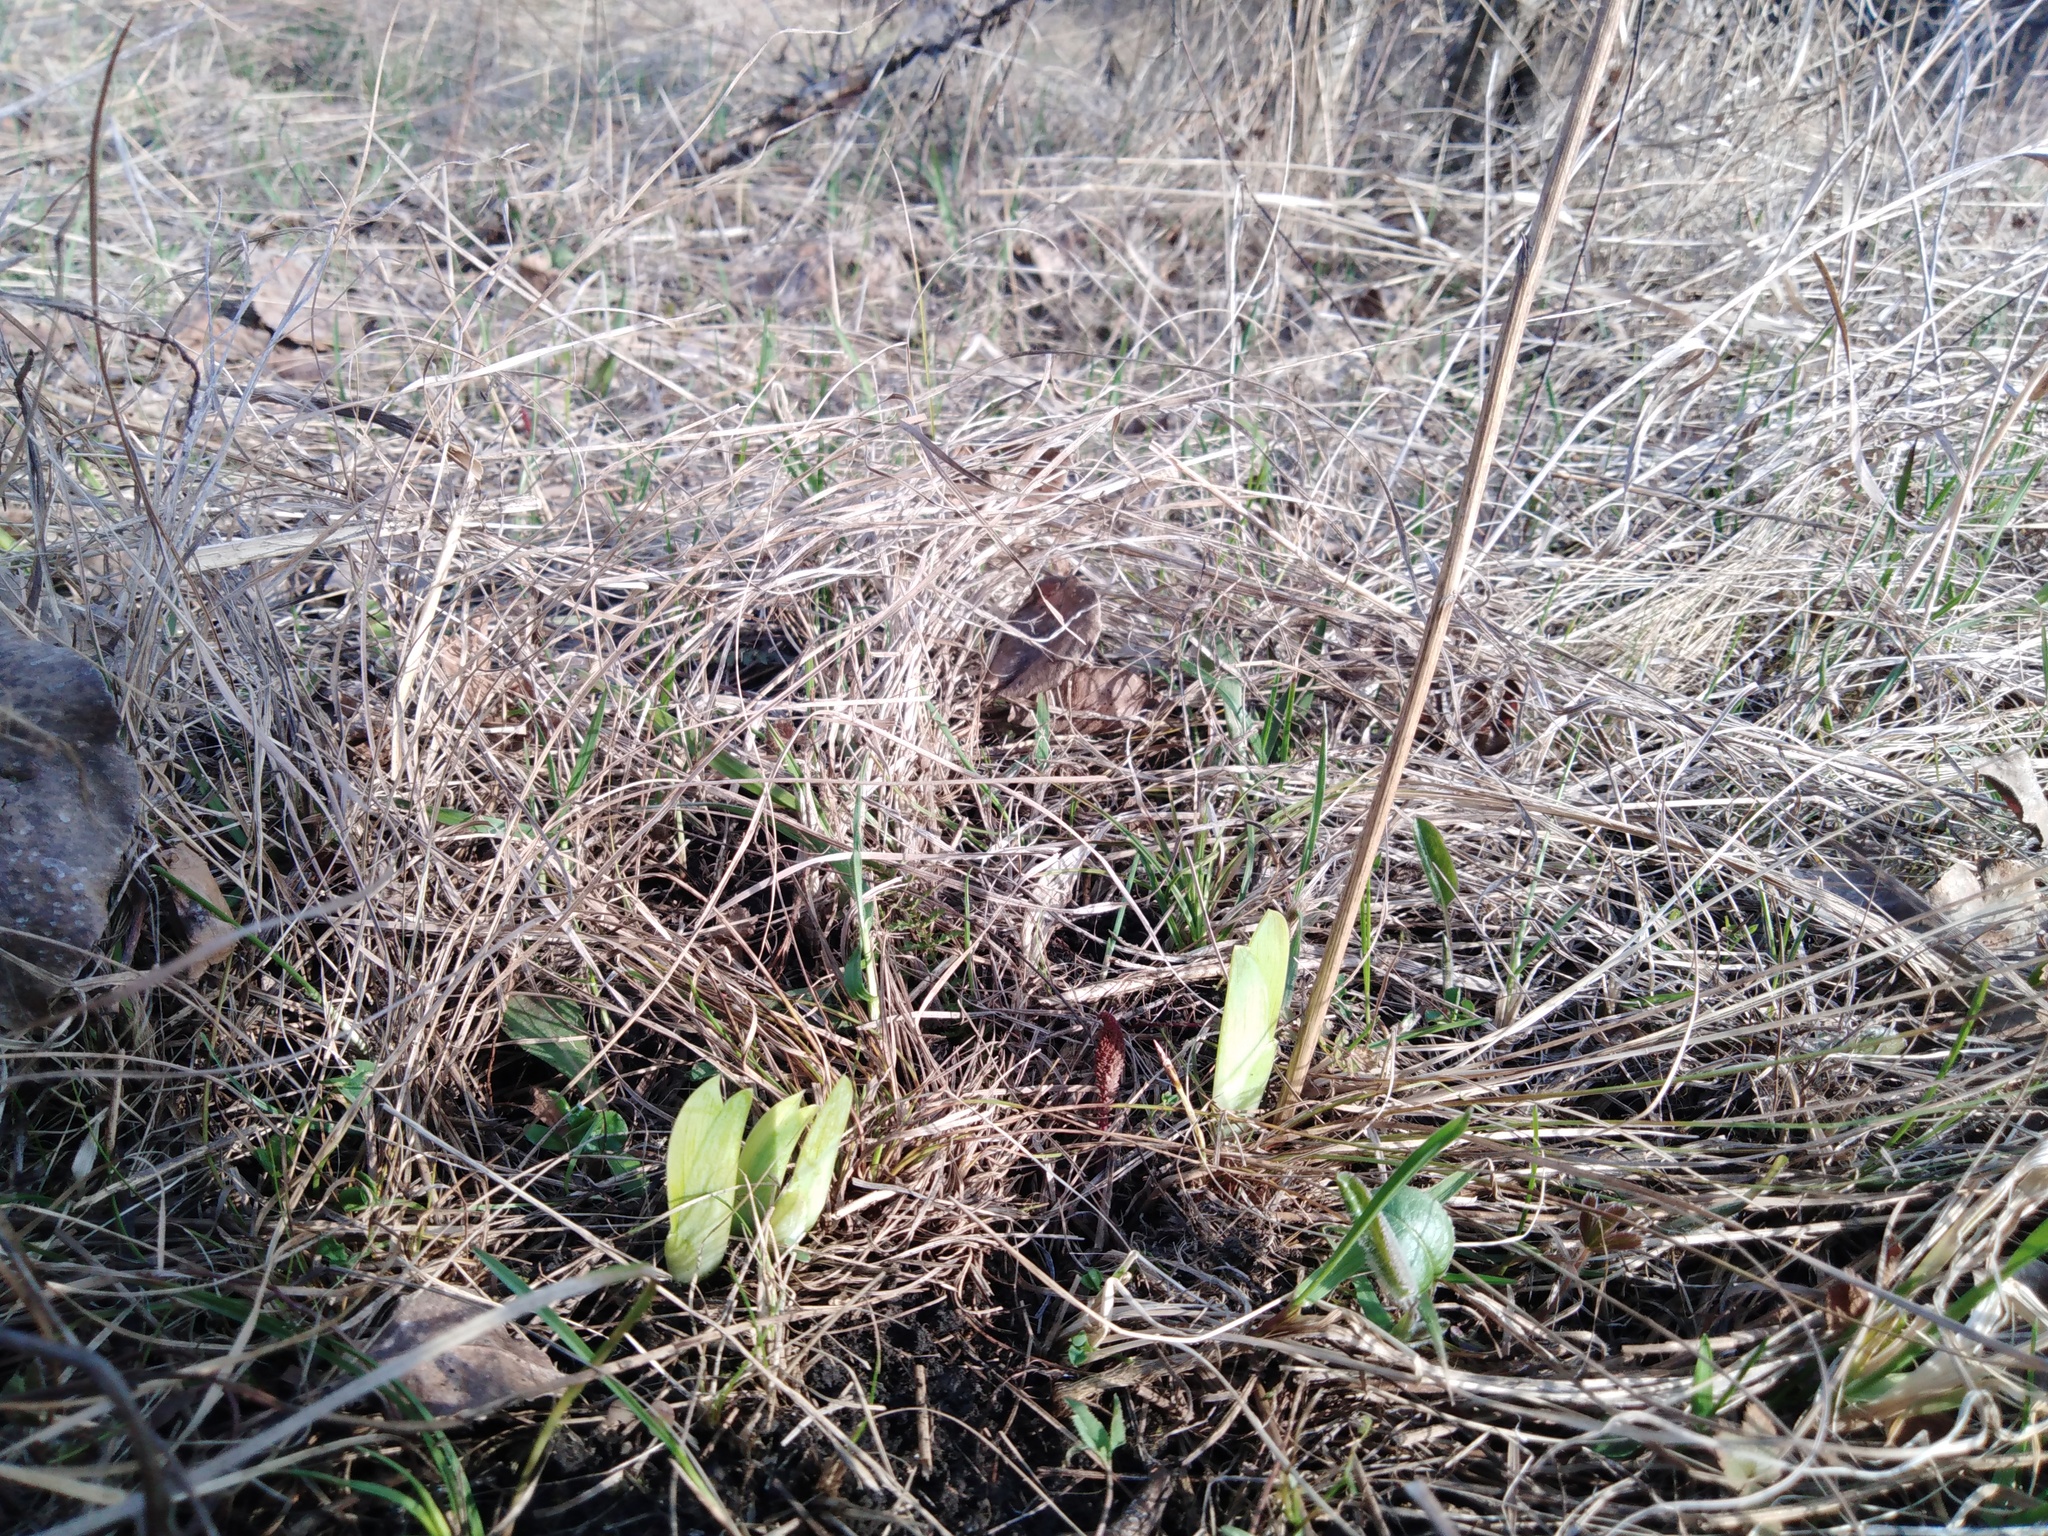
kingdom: Plantae
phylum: Tracheophyta
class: Liliopsida
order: Asparagales
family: Iridaceae
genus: Iris
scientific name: Iris aphylla
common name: Stool iris
